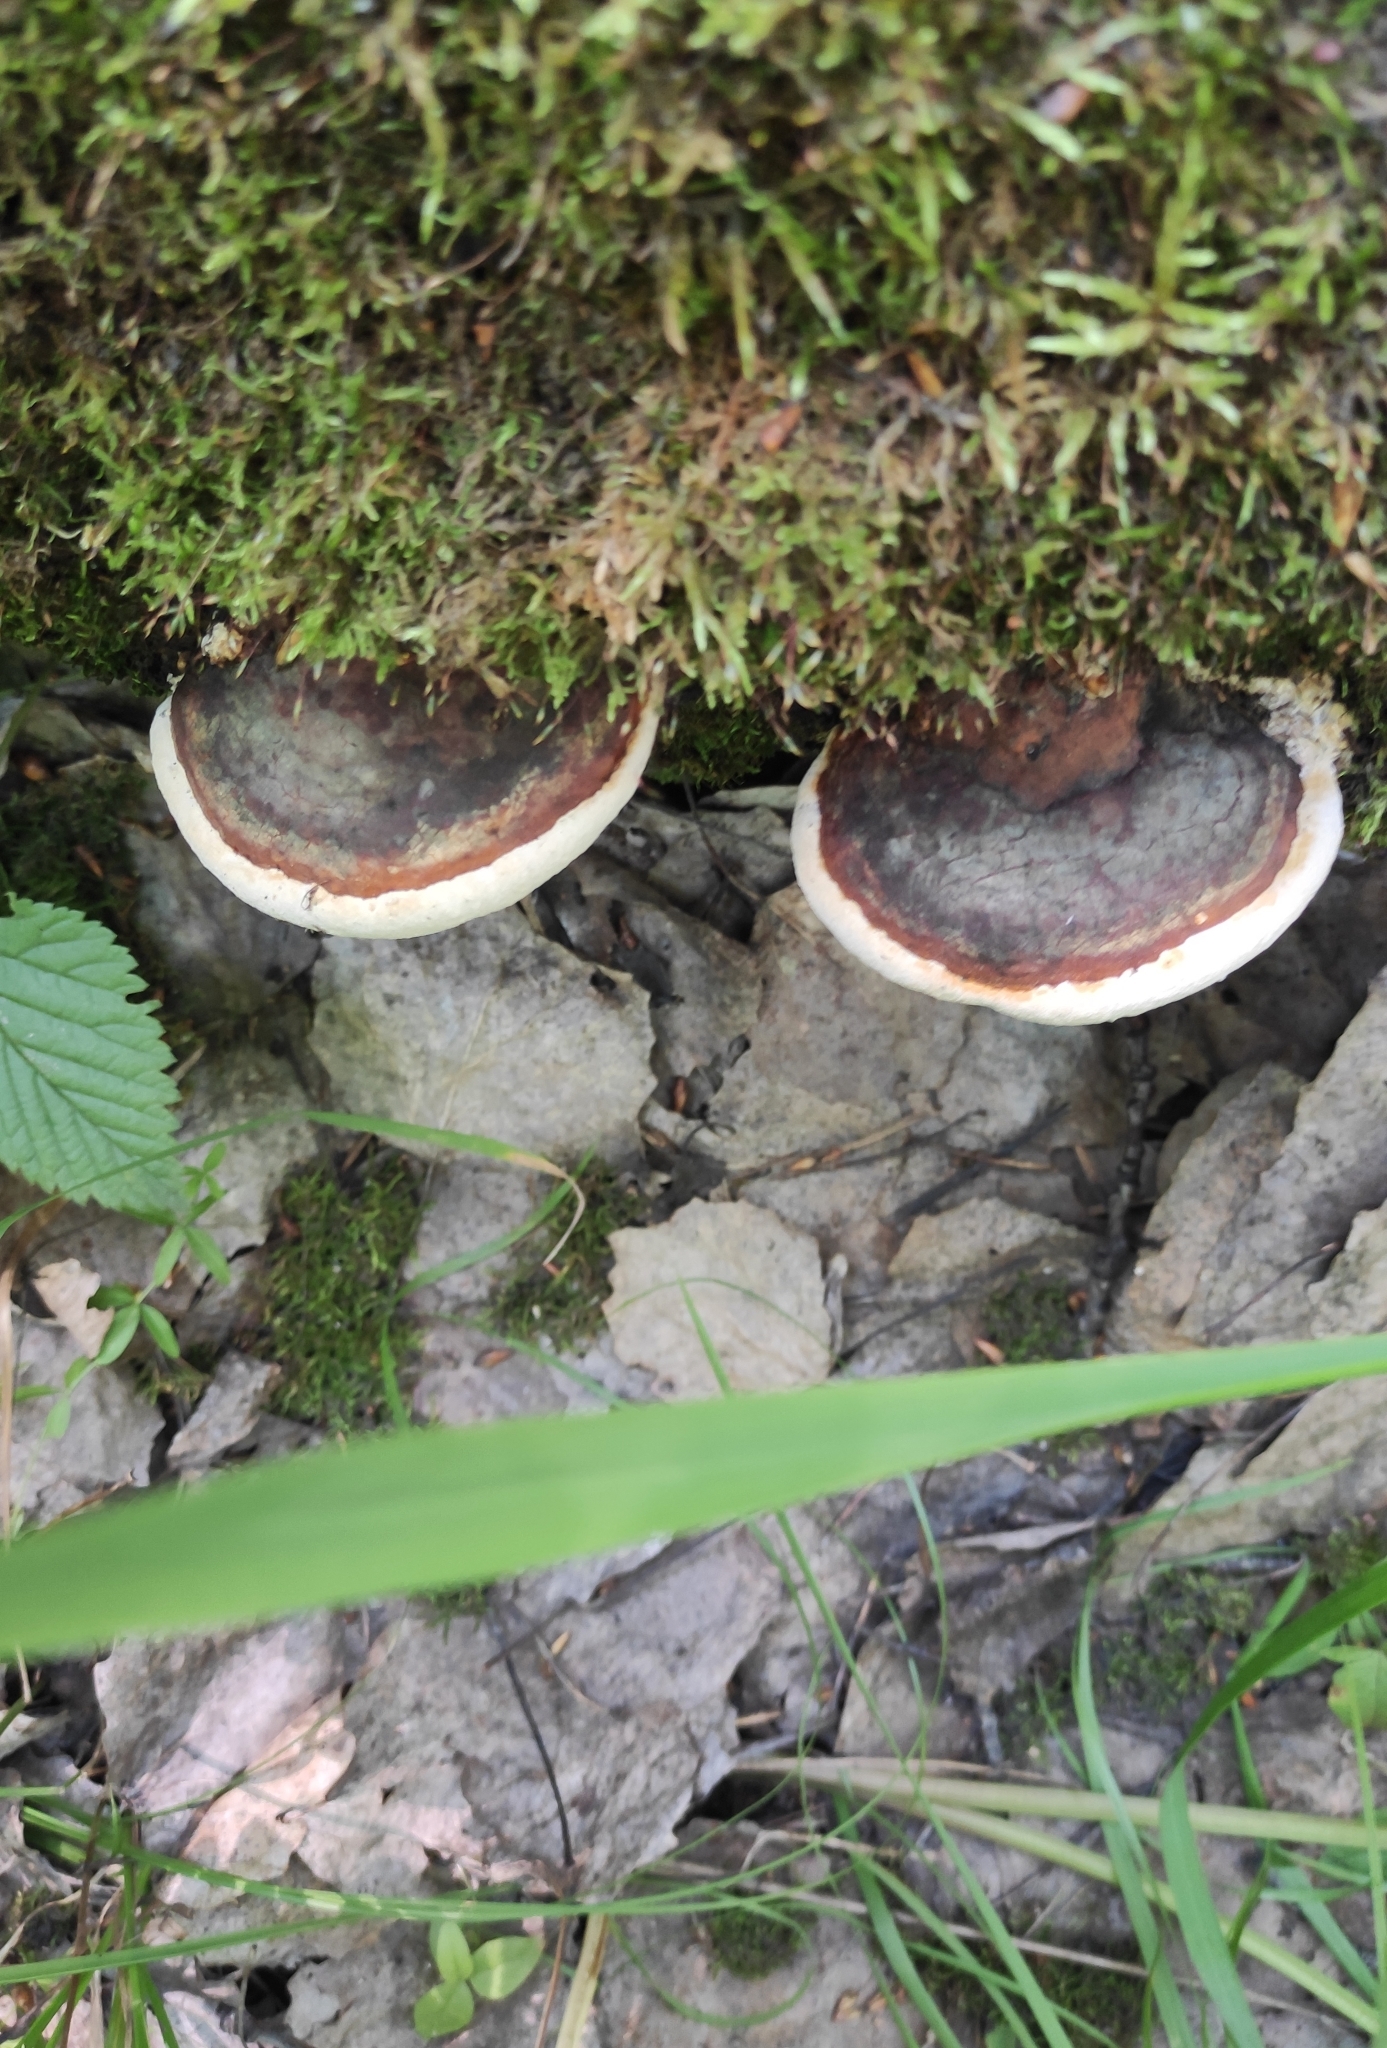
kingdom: Fungi
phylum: Basidiomycota
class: Agaricomycetes
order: Polyporales
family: Fomitopsidaceae
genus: Fomitopsis
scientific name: Fomitopsis pinicola
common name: Red-belted bracket
